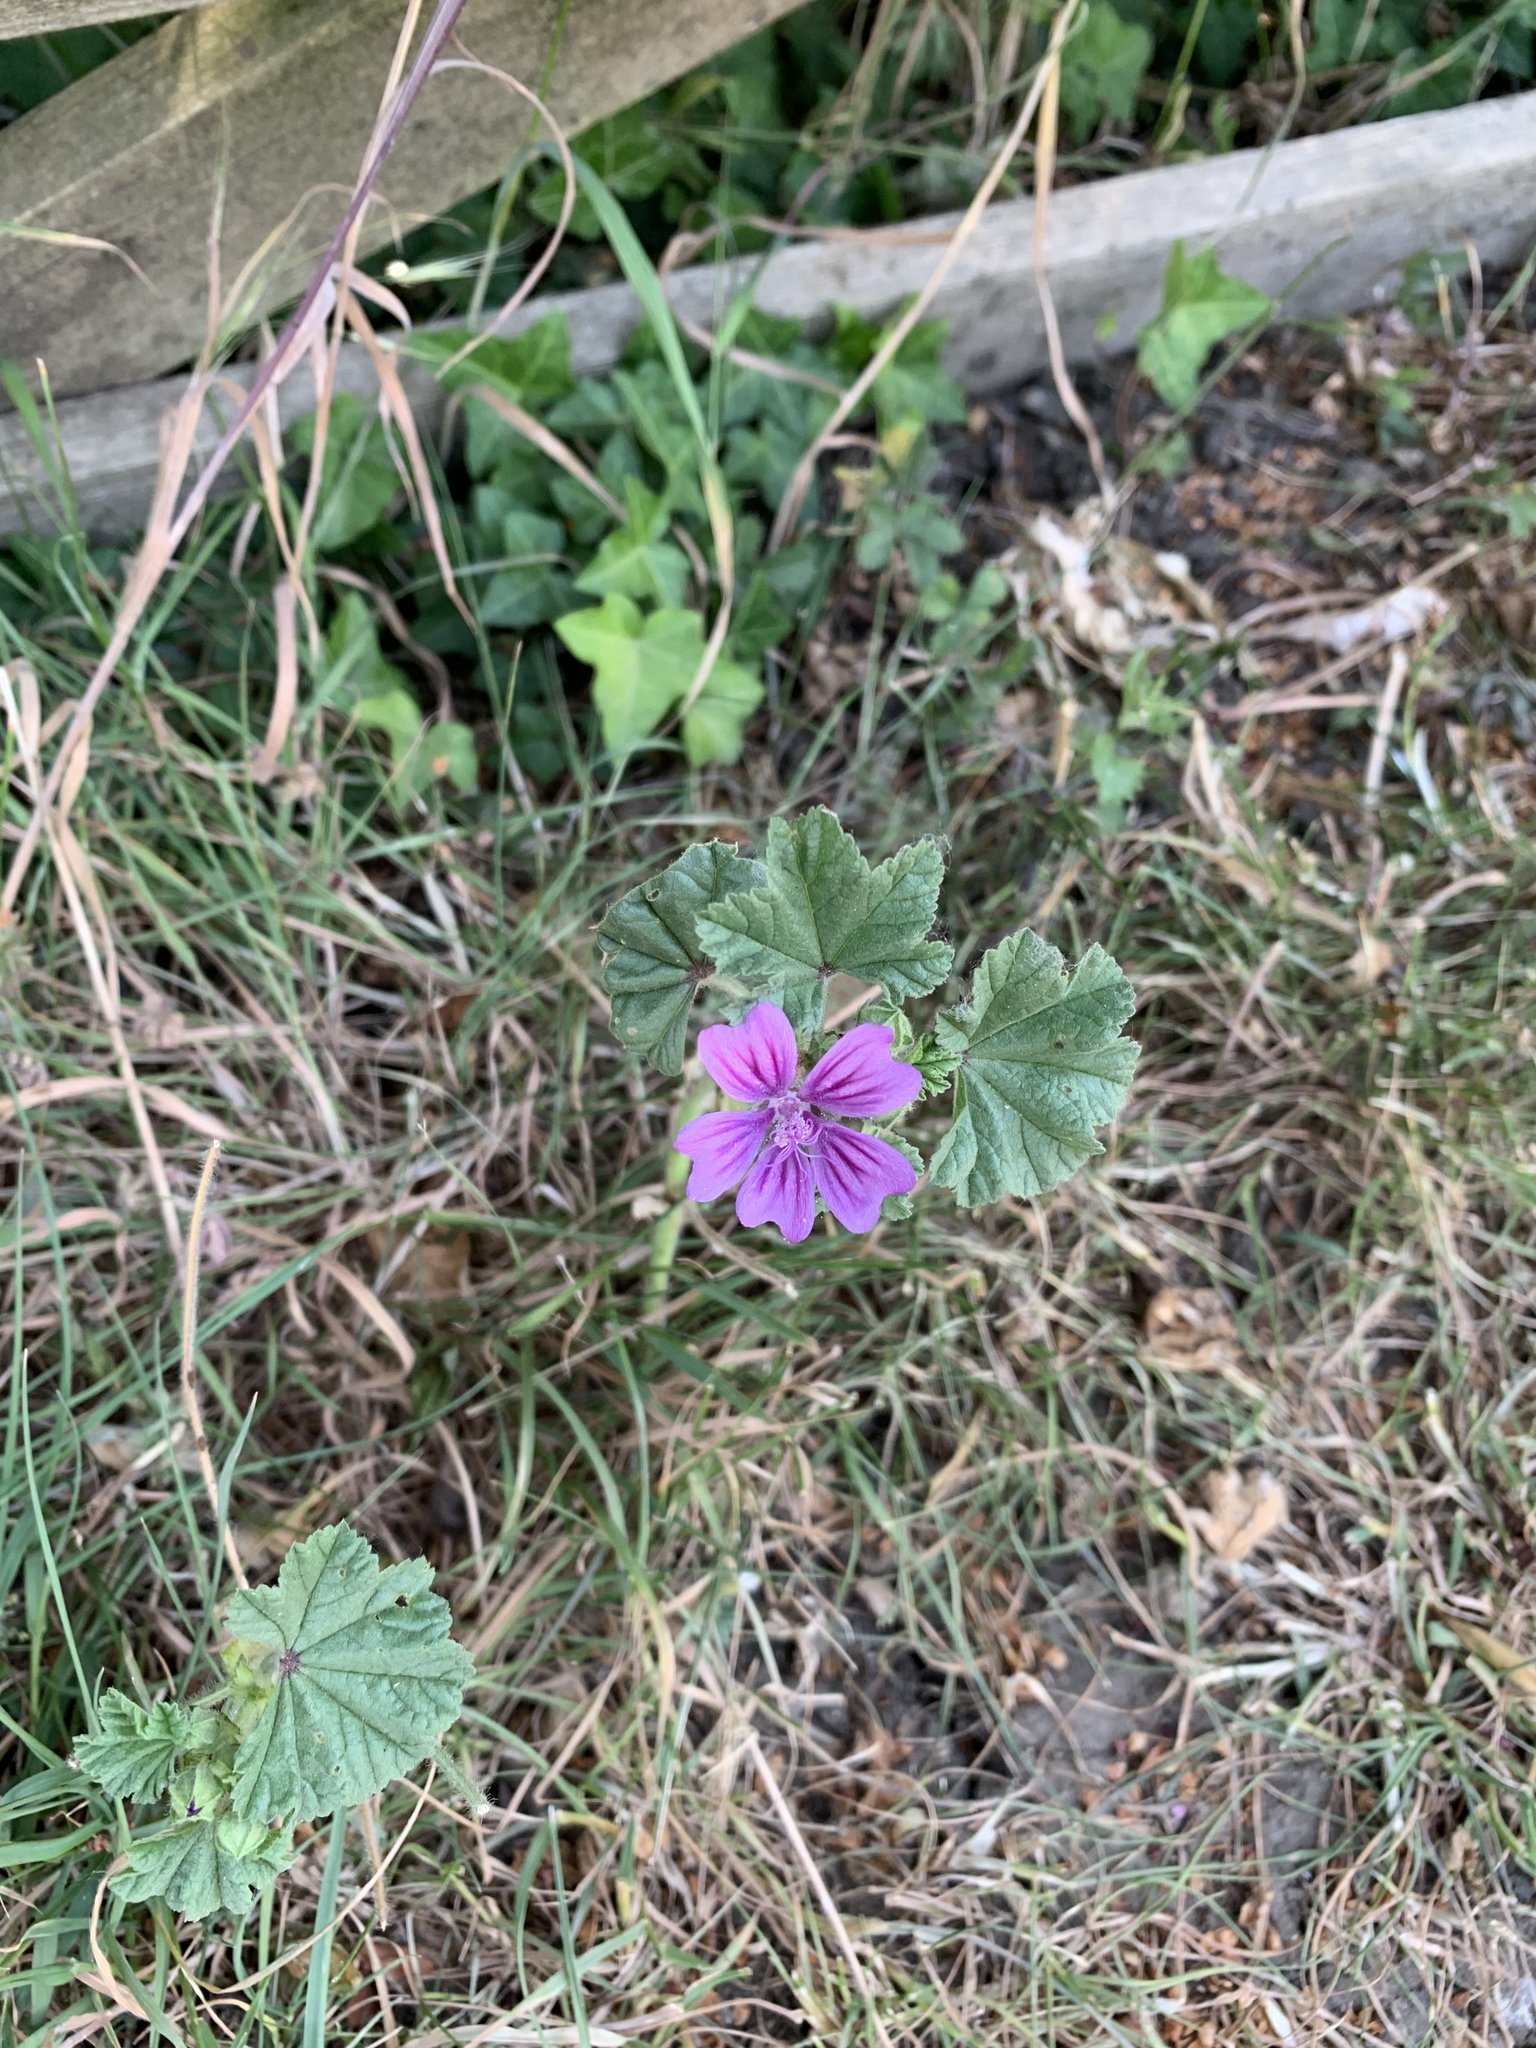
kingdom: Plantae
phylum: Tracheophyta
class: Magnoliopsida
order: Malvales
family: Malvaceae
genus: Malva
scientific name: Malva sylvestris
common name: Common mallow
